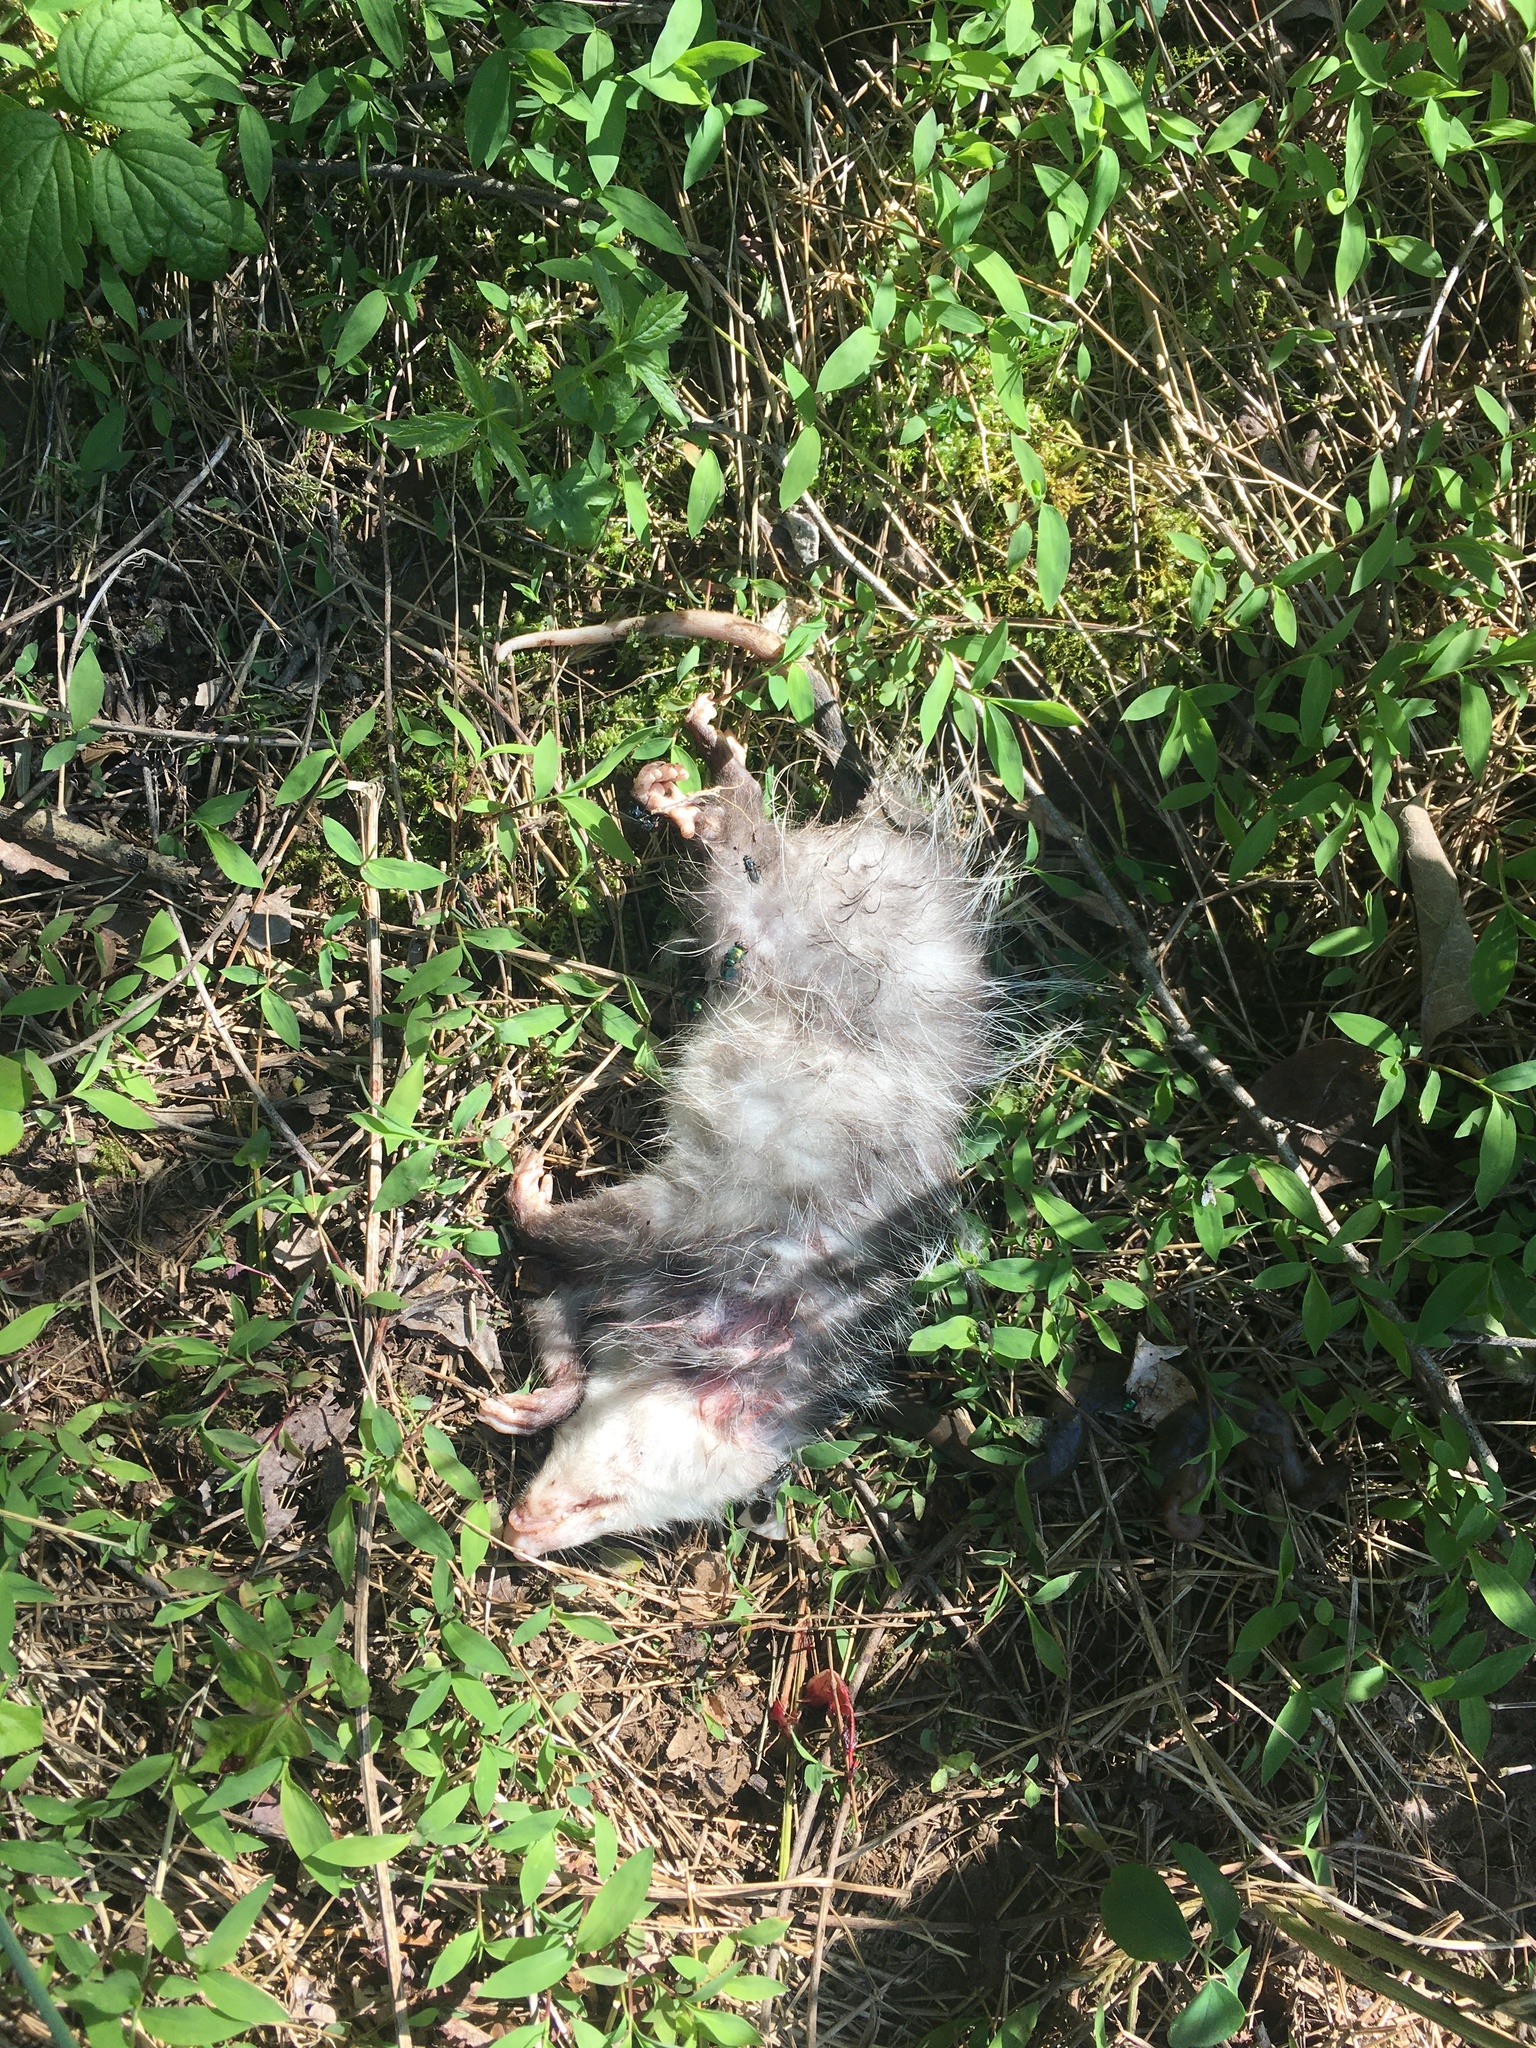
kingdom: Animalia
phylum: Chordata
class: Mammalia
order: Didelphimorphia
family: Didelphidae
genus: Didelphis
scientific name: Didelphis virginiana
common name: Virginia opossum
